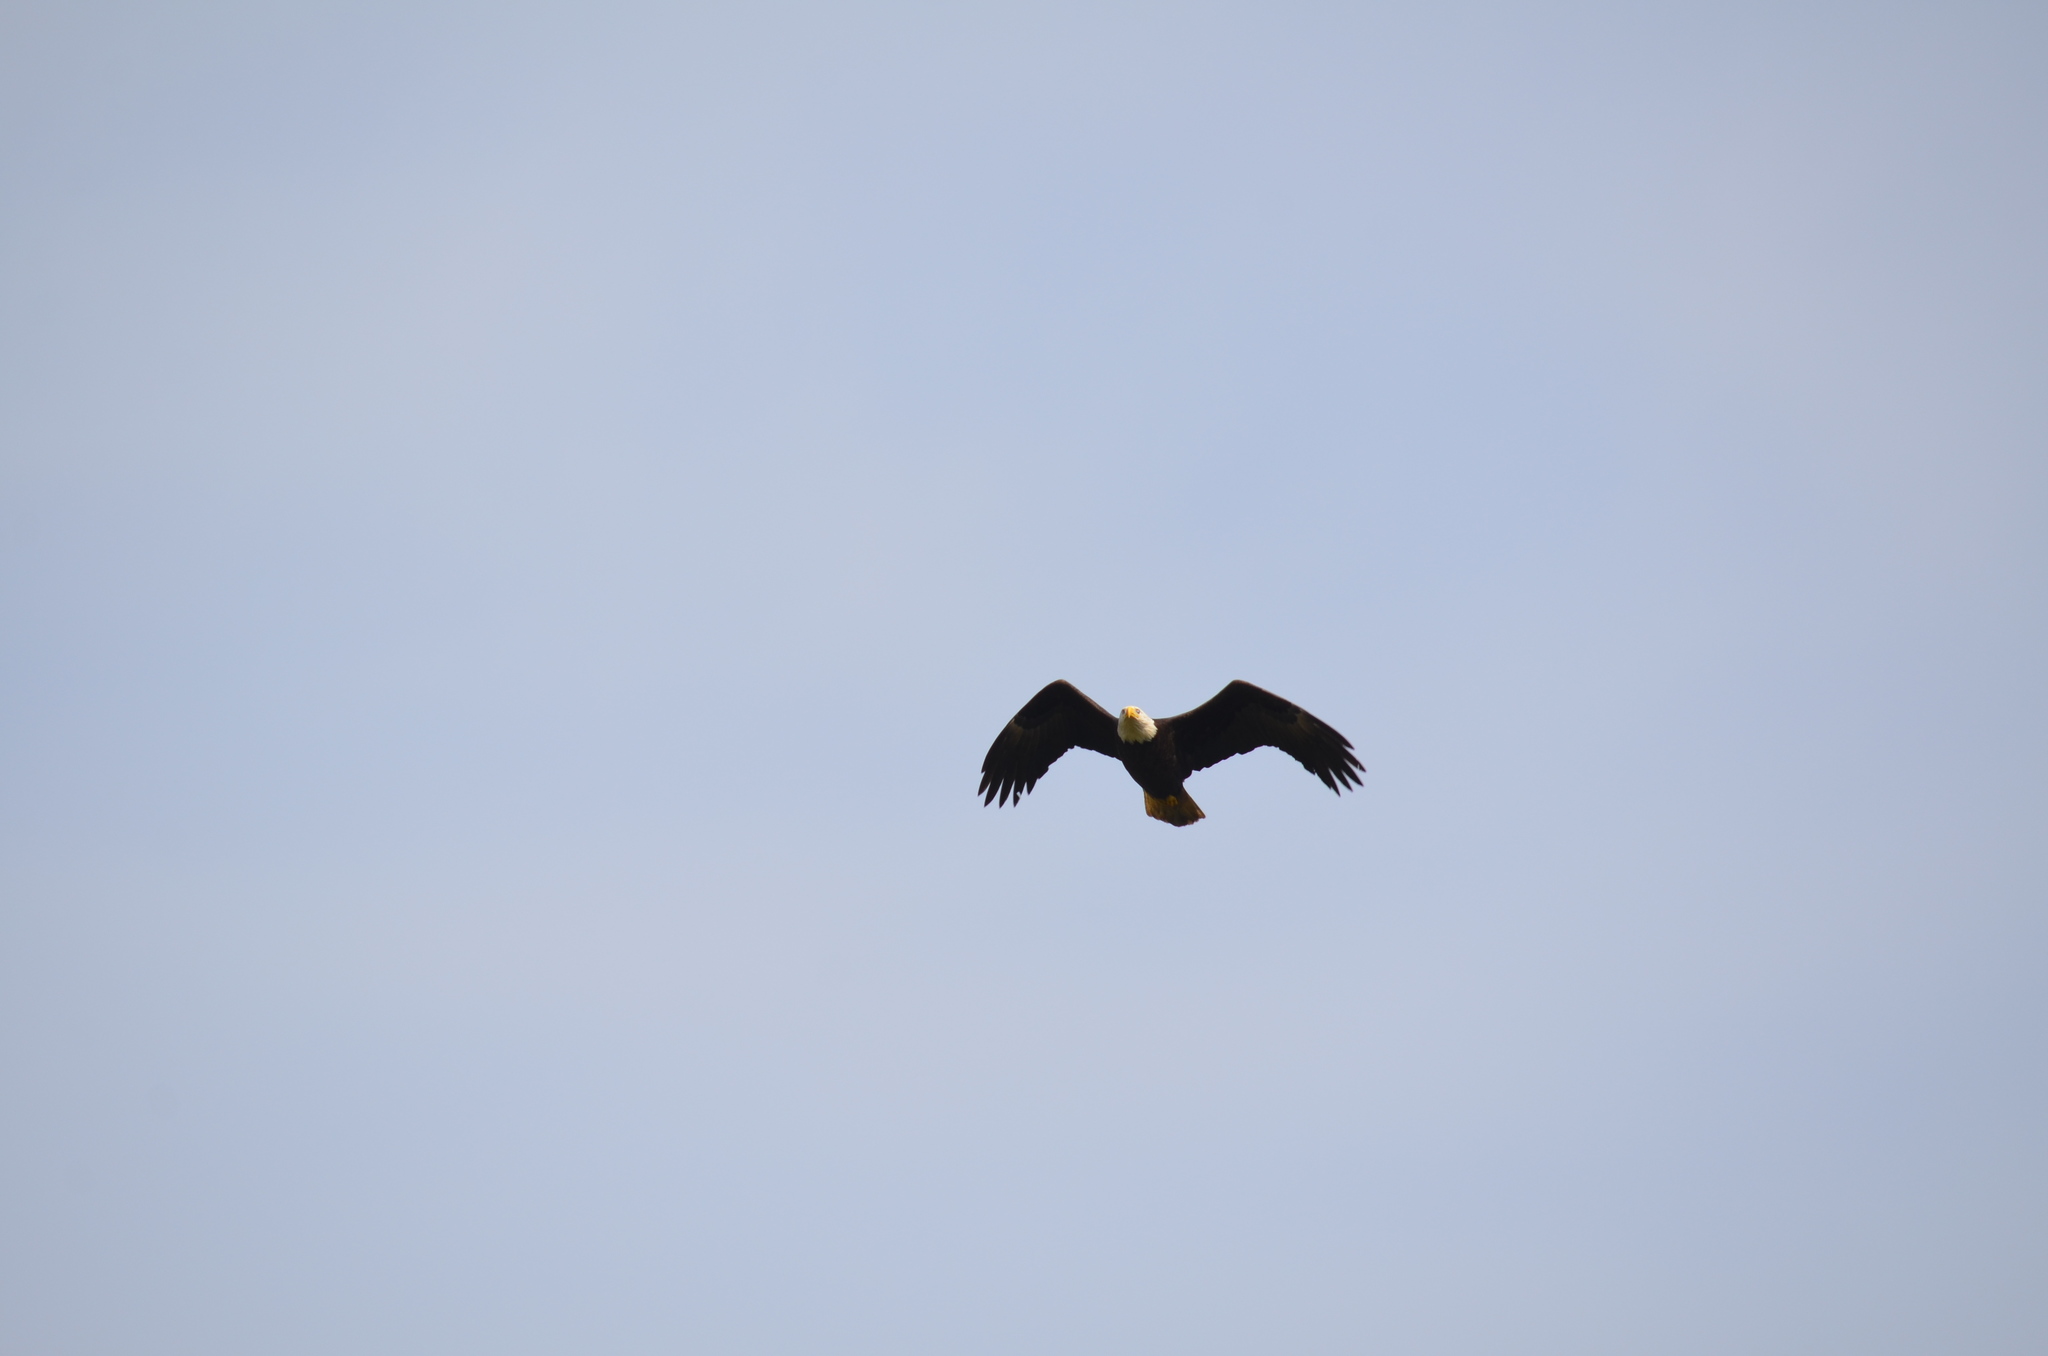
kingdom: Animalia
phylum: Chordata
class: Aves
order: Accipitriformes
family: Accipitridae
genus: Haliaeetus
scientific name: Haliaeetus leucocephalus
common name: Bald eagle
